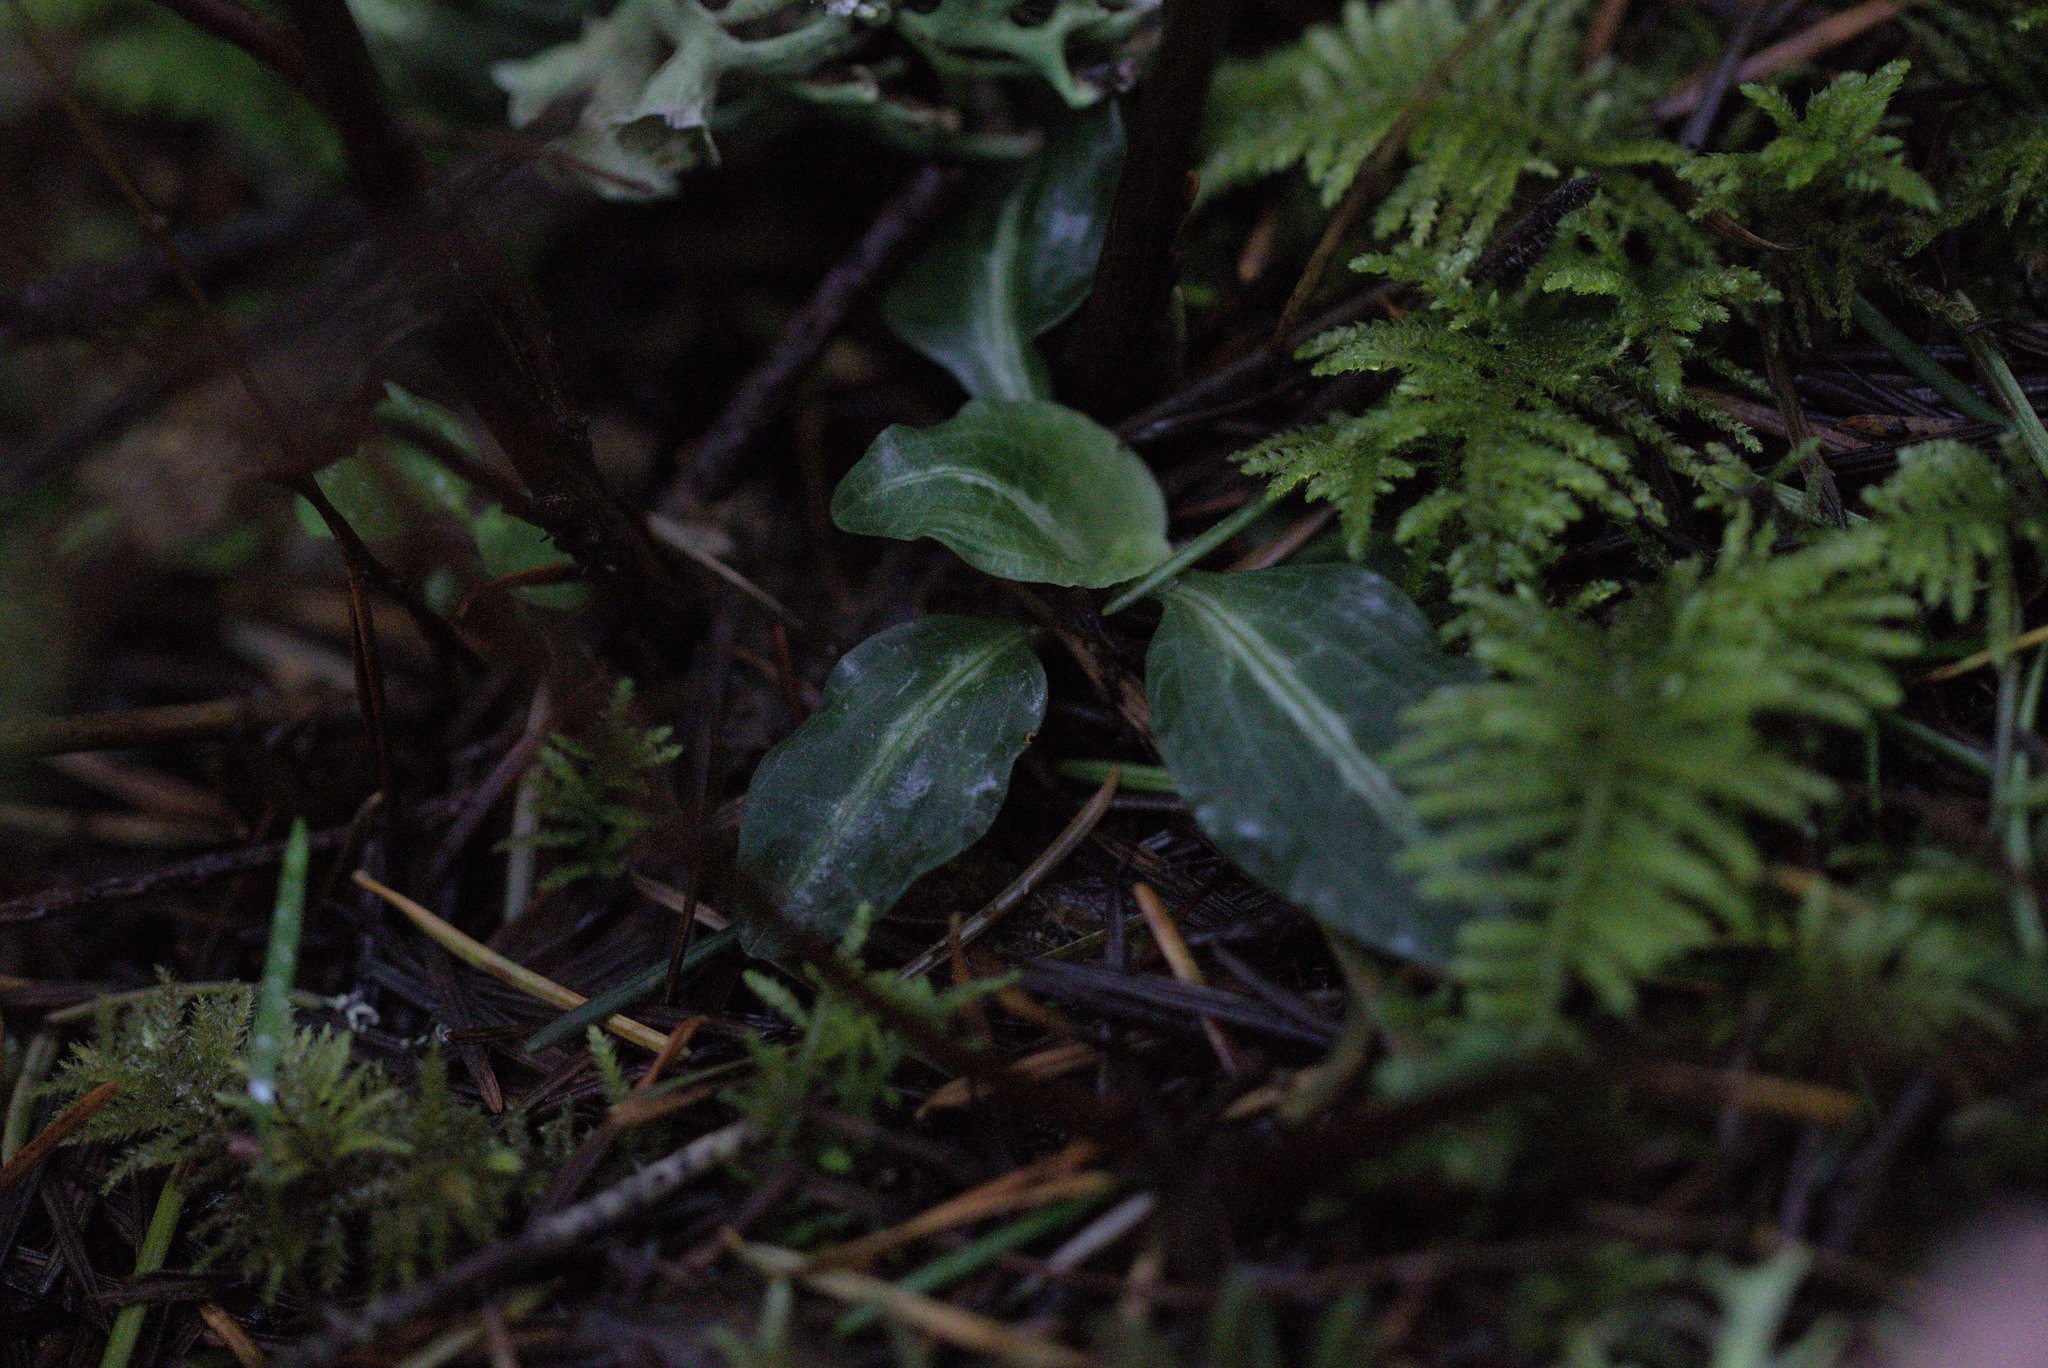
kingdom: Plantae
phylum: Tracheophyta
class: Liliopsida
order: Asparagales
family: Orchidaceae
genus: Goodyera
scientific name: Goodyera oblongifolia
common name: Giant rattlesnake-plantain
